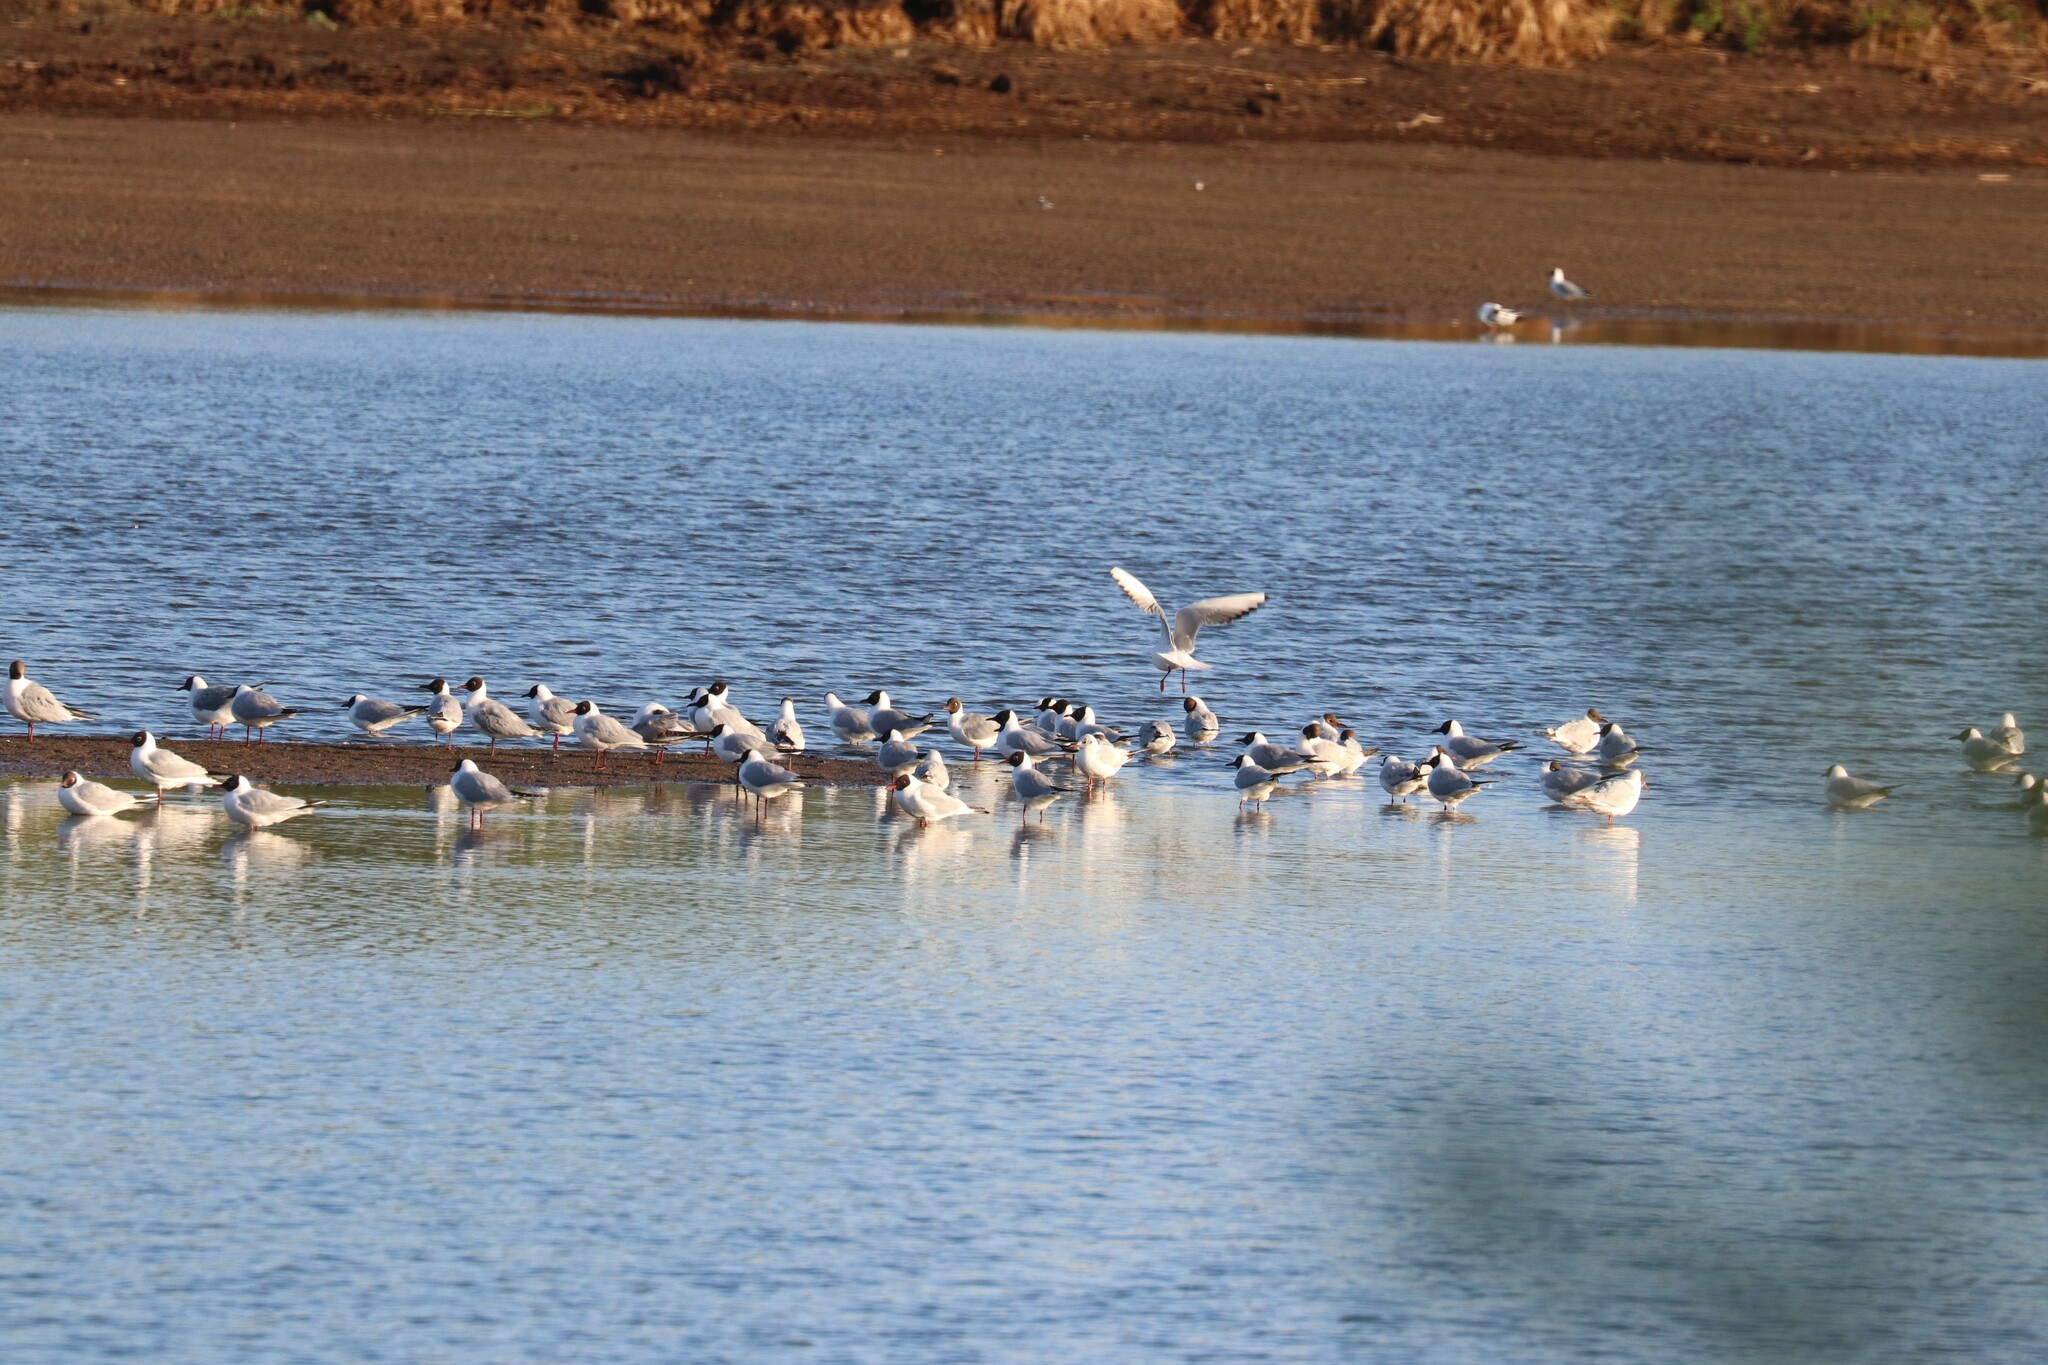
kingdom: Animalia
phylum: Chordata
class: Aves
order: Charadriiformes
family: Laridae
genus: Chroicocephalus
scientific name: Chroicocephalus ridibundus
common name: Black-headed gull
